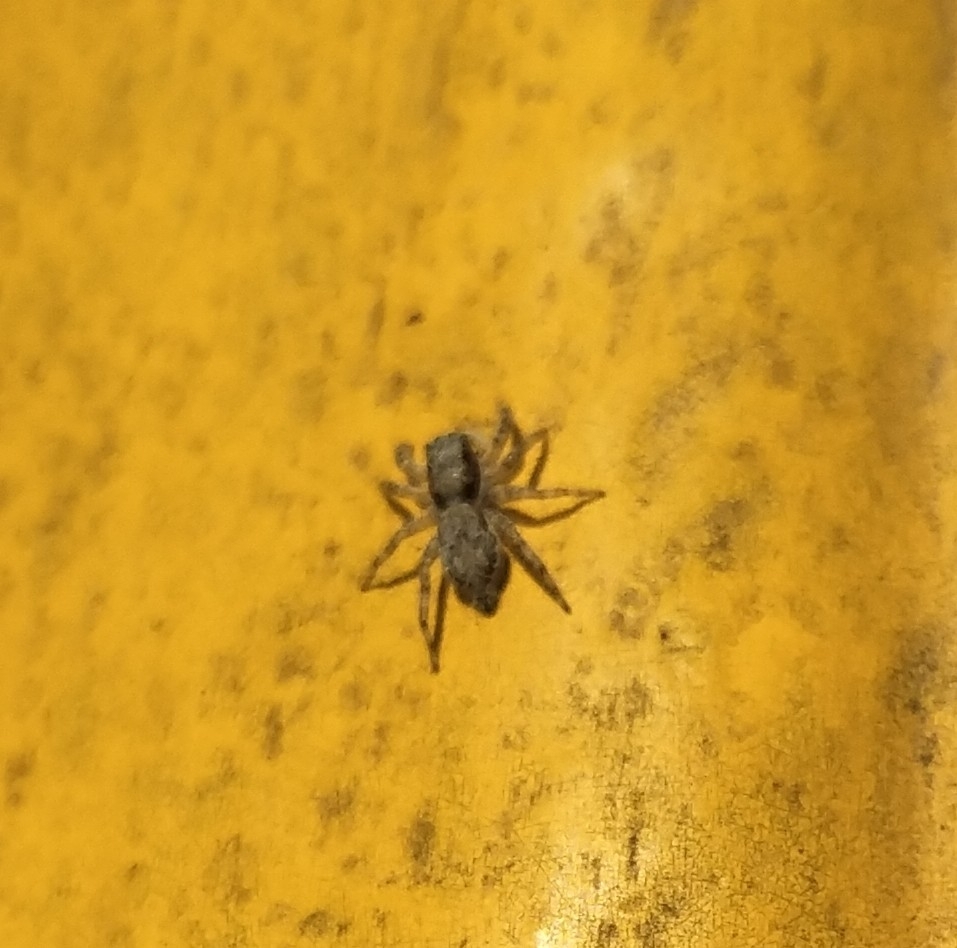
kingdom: Animalia
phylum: Arthropoda
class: Arachnida
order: Araneae
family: Salticidae
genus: Menemerus
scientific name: Menemerus bivittatus
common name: Gray wall jumper
